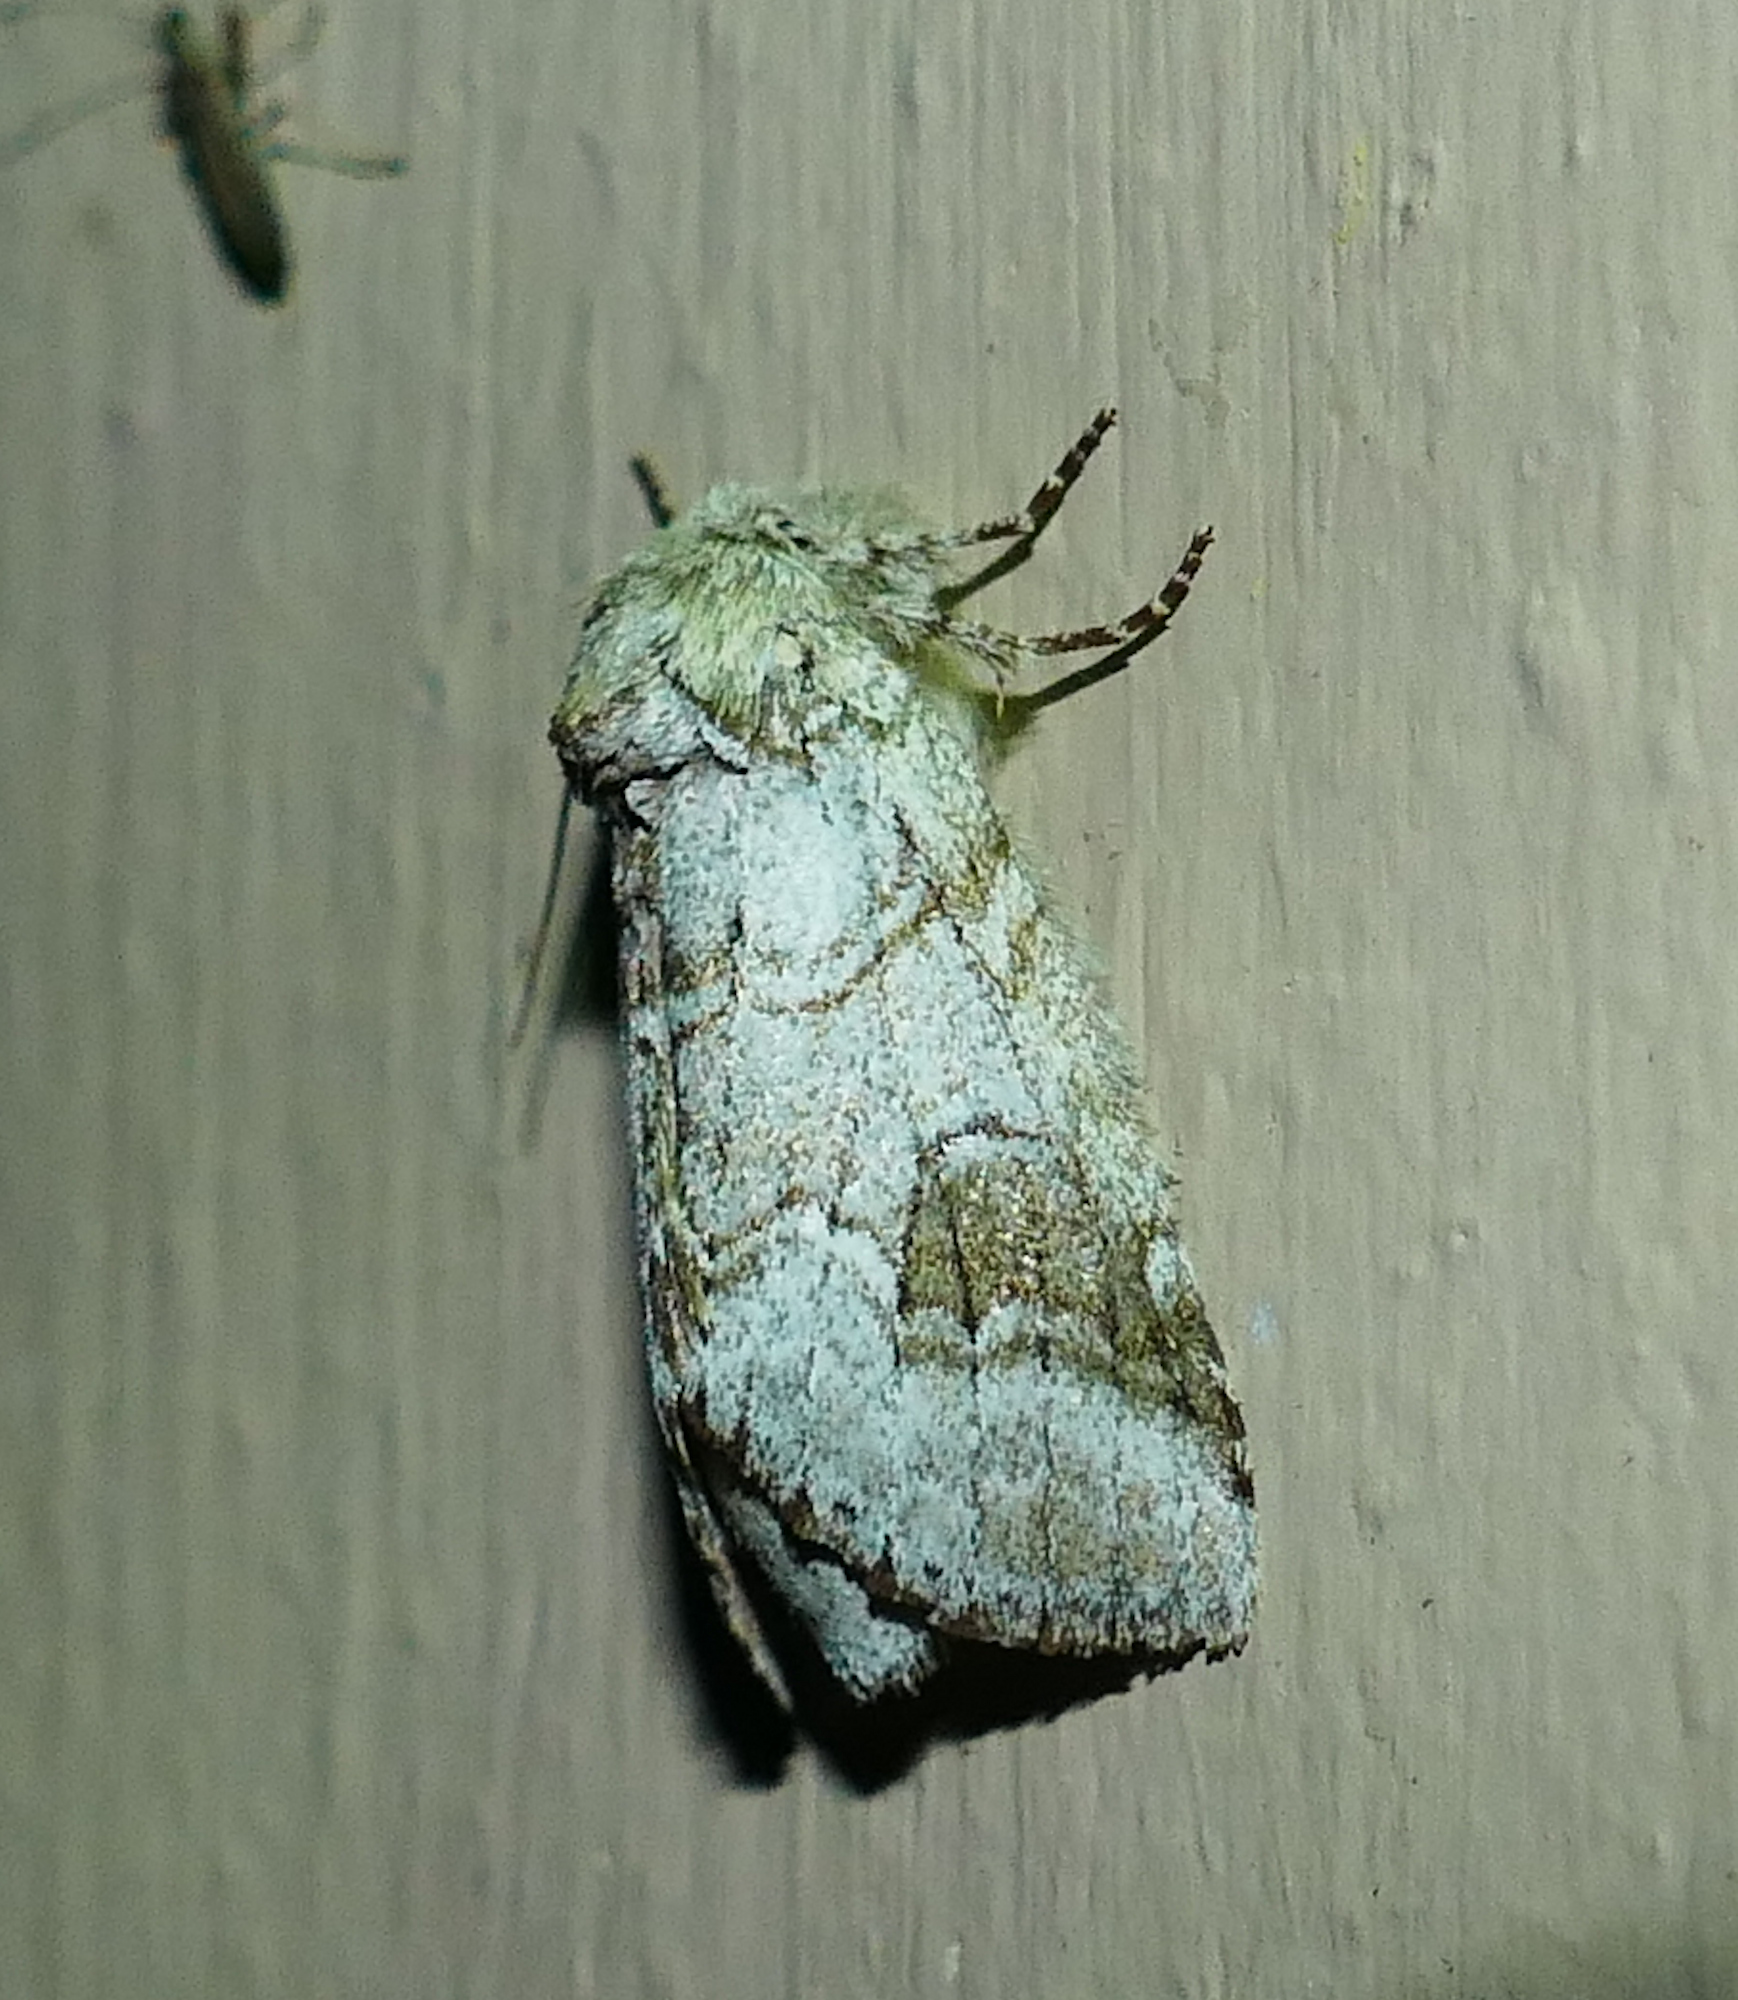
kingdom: Animalia
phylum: Arthropoda
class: Insecta
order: Lepidoptera
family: Notodontidae
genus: Lochmaeus
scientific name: Lochmaeus bilineata
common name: Double-lined prominent
